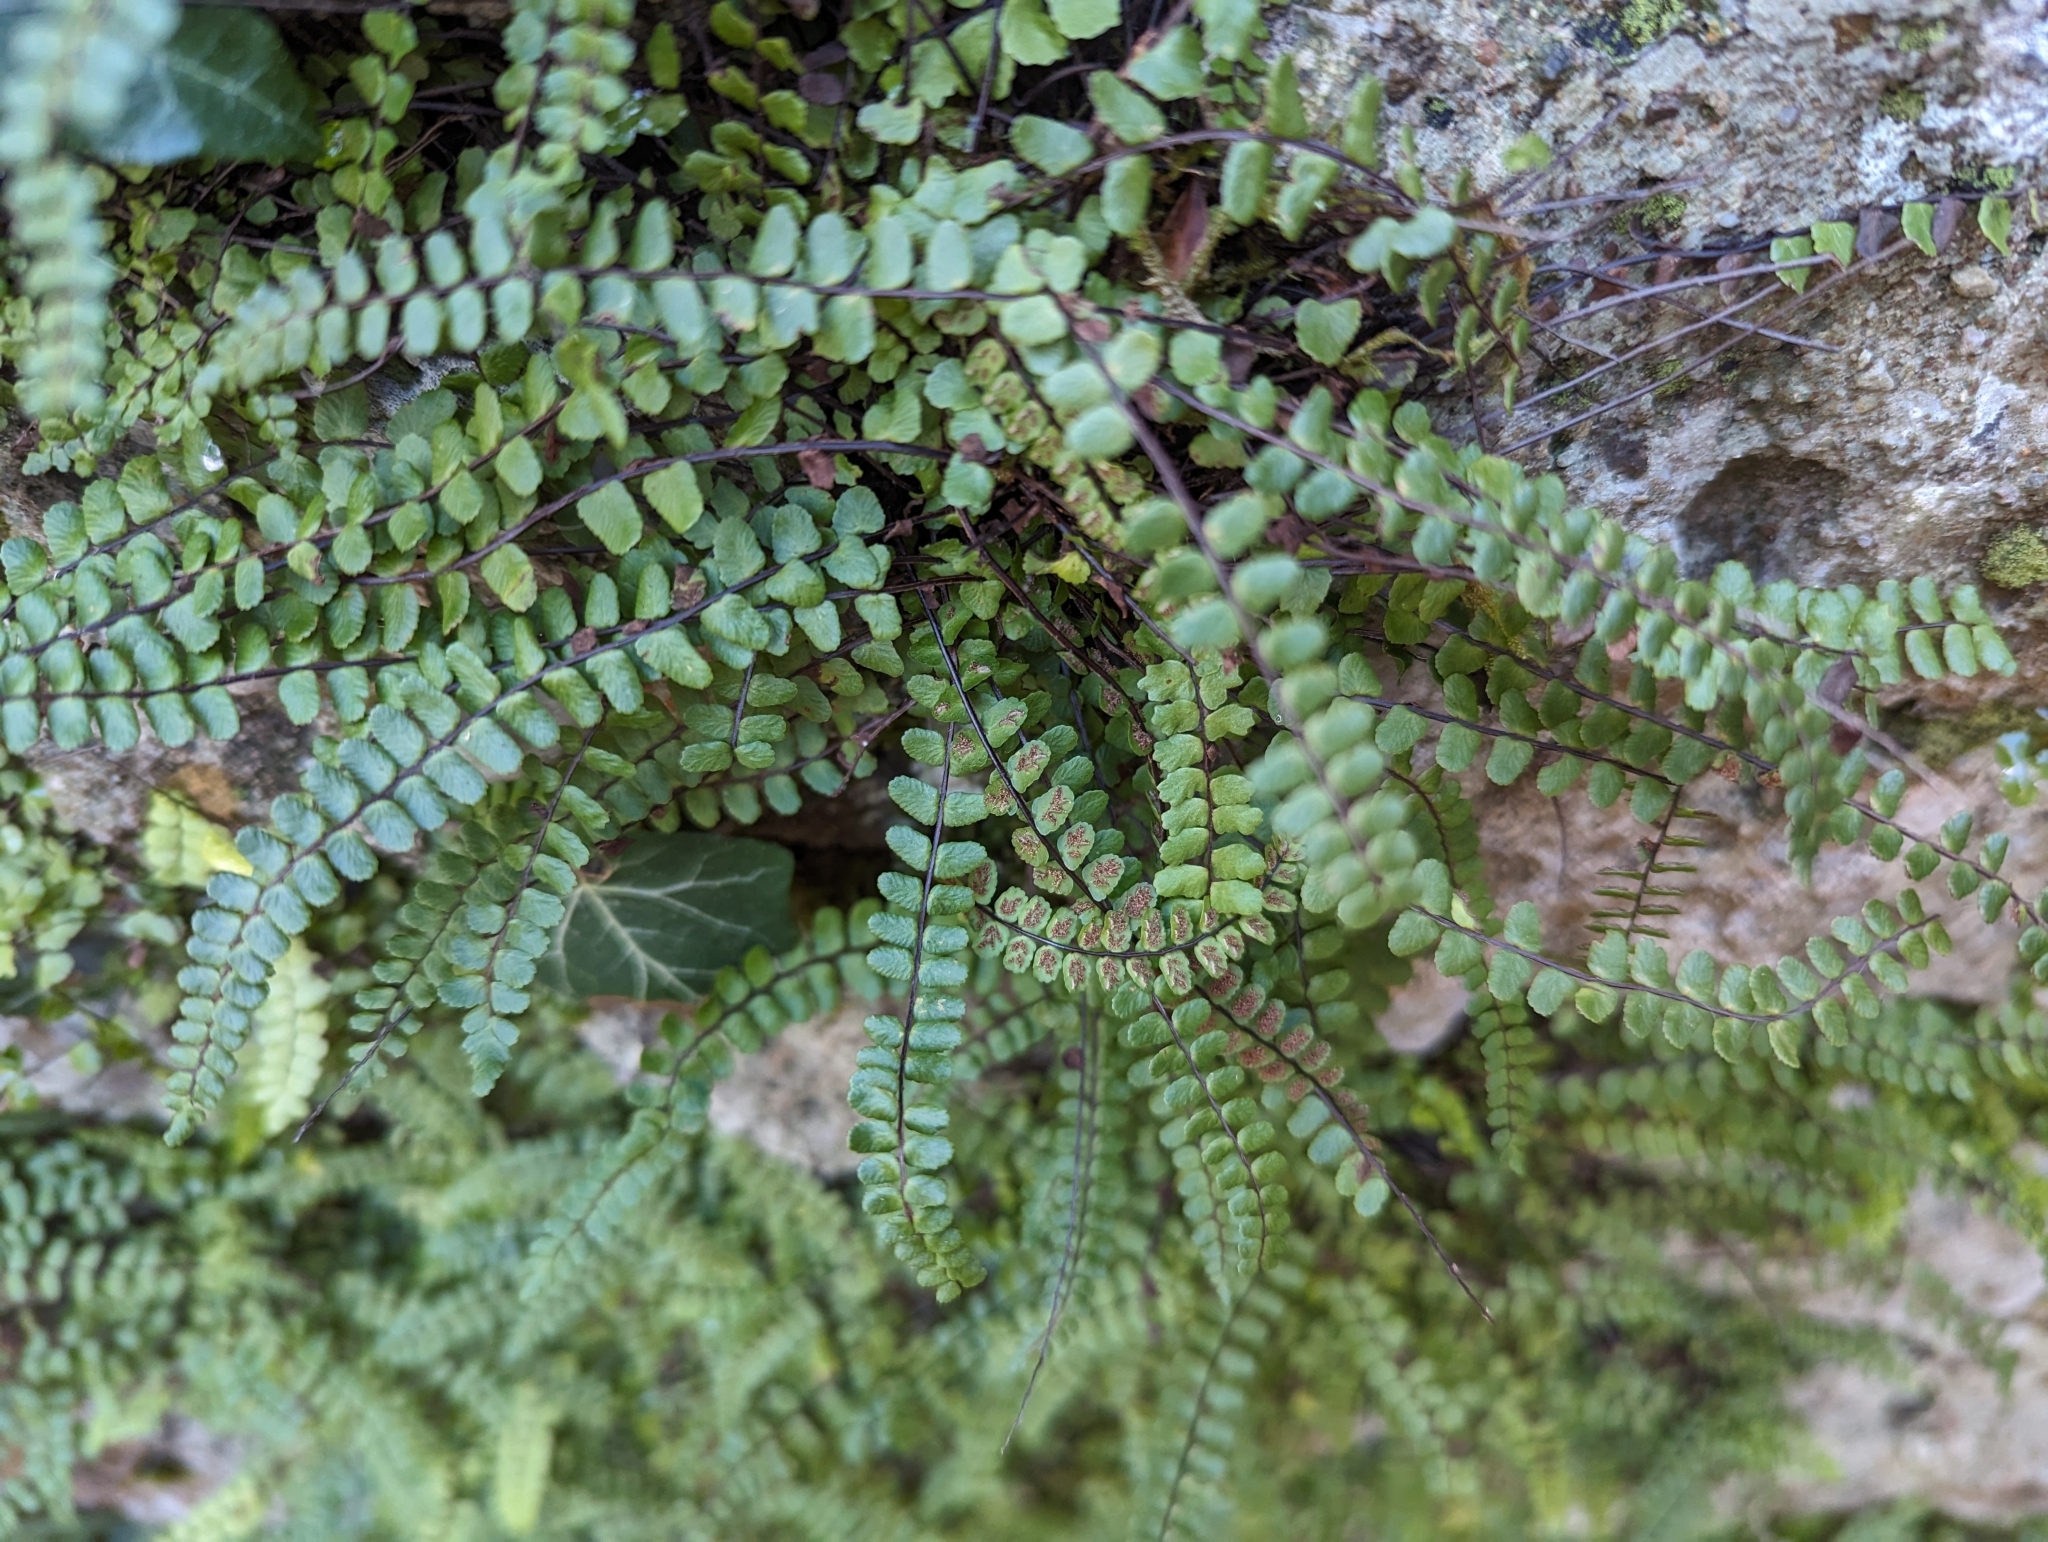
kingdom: Plantae
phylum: Tracheophyta
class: Polypodiopsida
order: Polypodiales
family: Aspleniaceae
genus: Asplenium
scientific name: Asplenium trichomanes
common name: Maidenhair spleenwort
